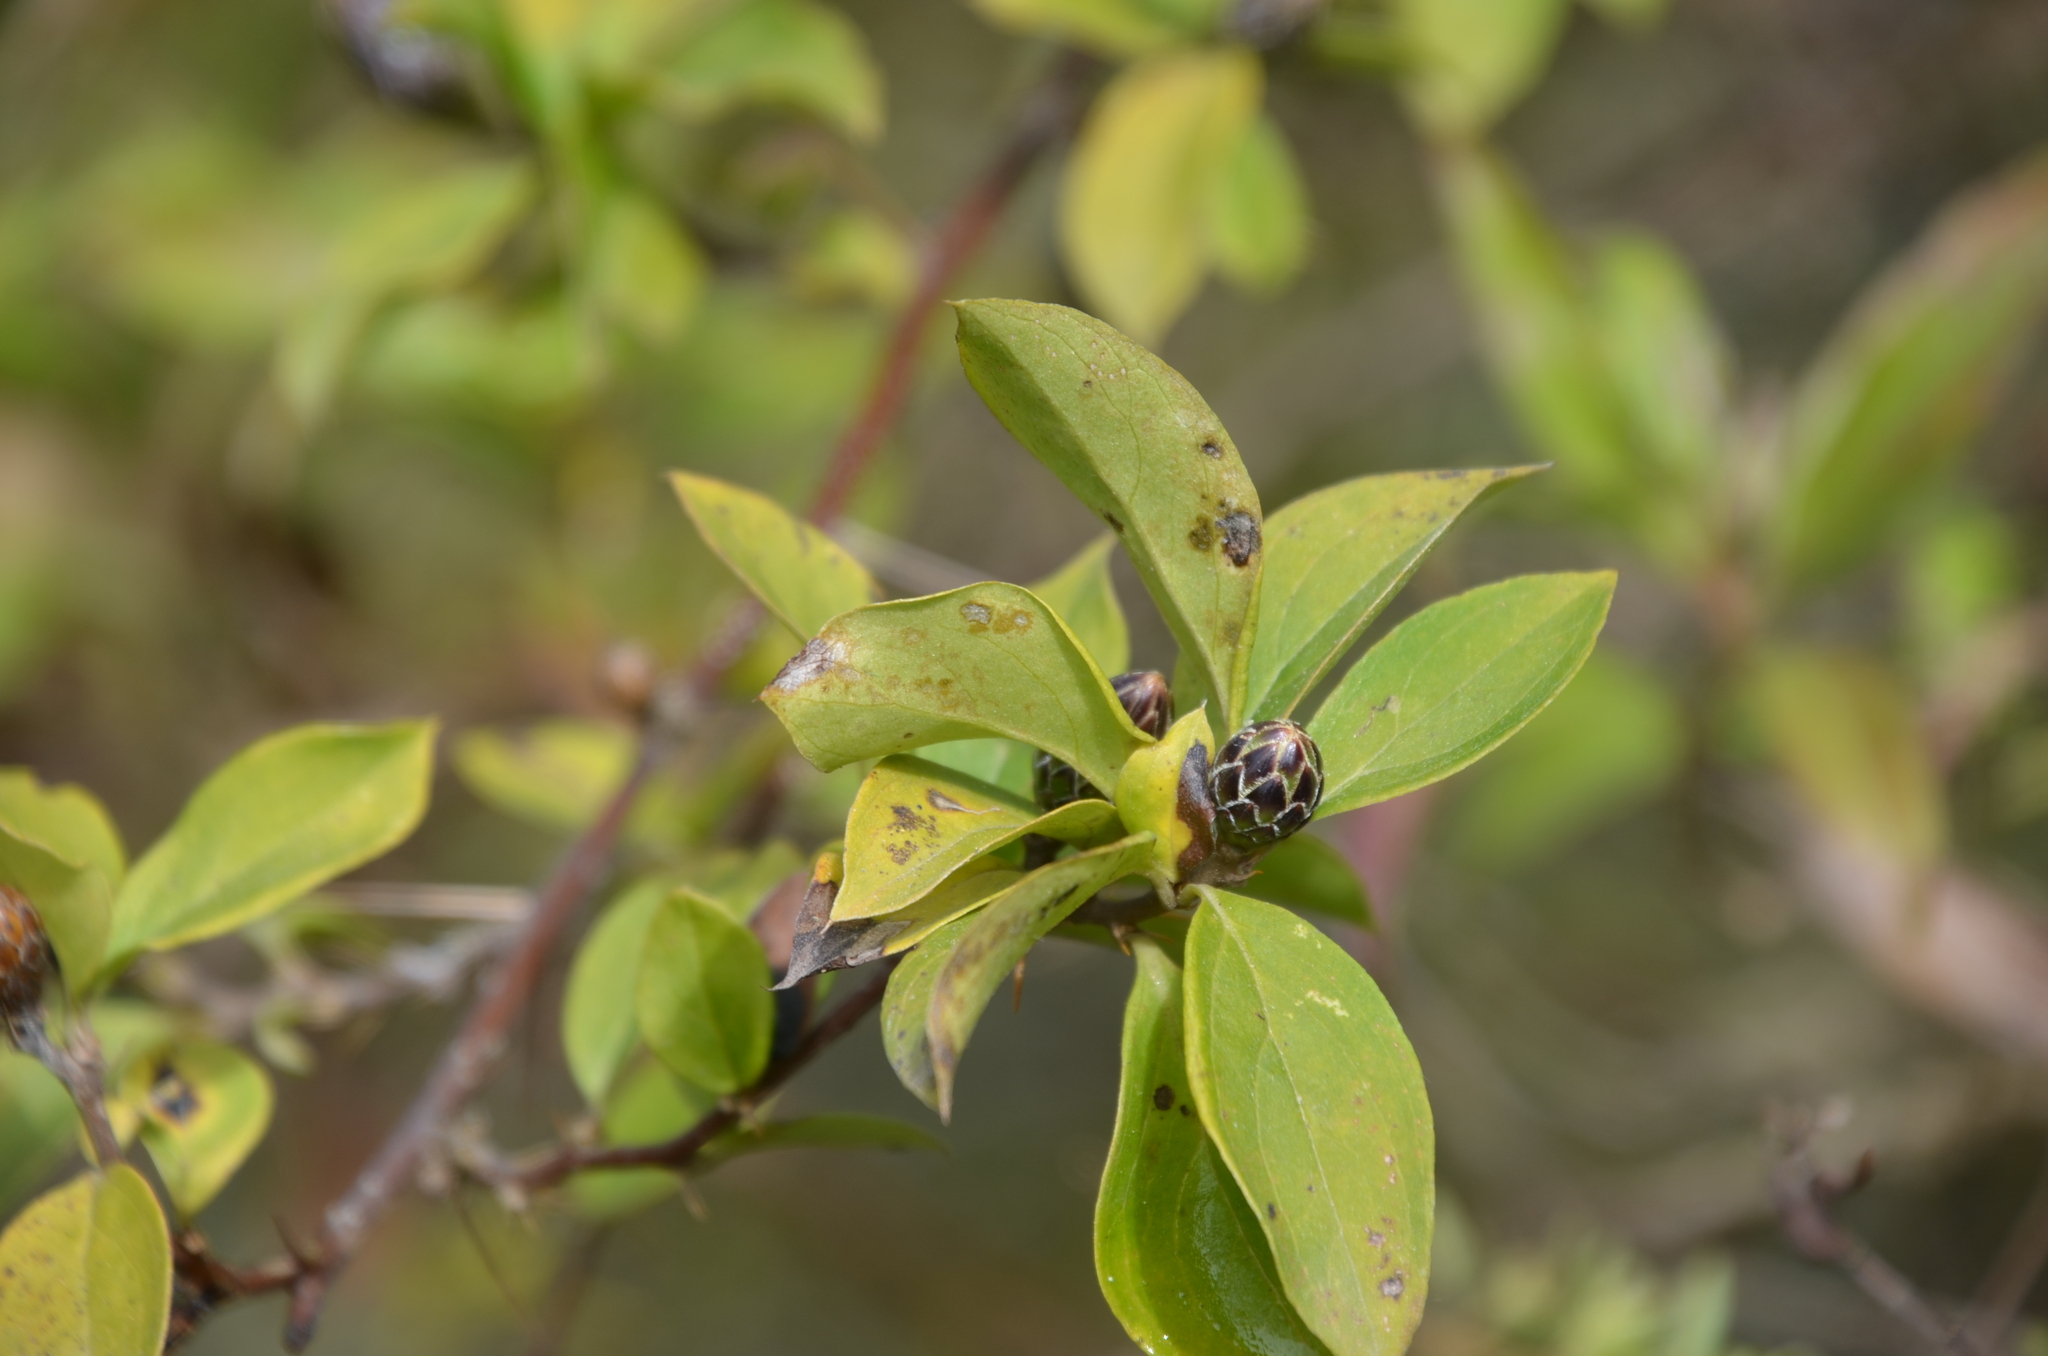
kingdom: Plantae
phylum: Tracheophyta
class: Magnoliopsida
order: Asterales
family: Asteraceae
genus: Barnadesia
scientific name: Barnadesia odorata
